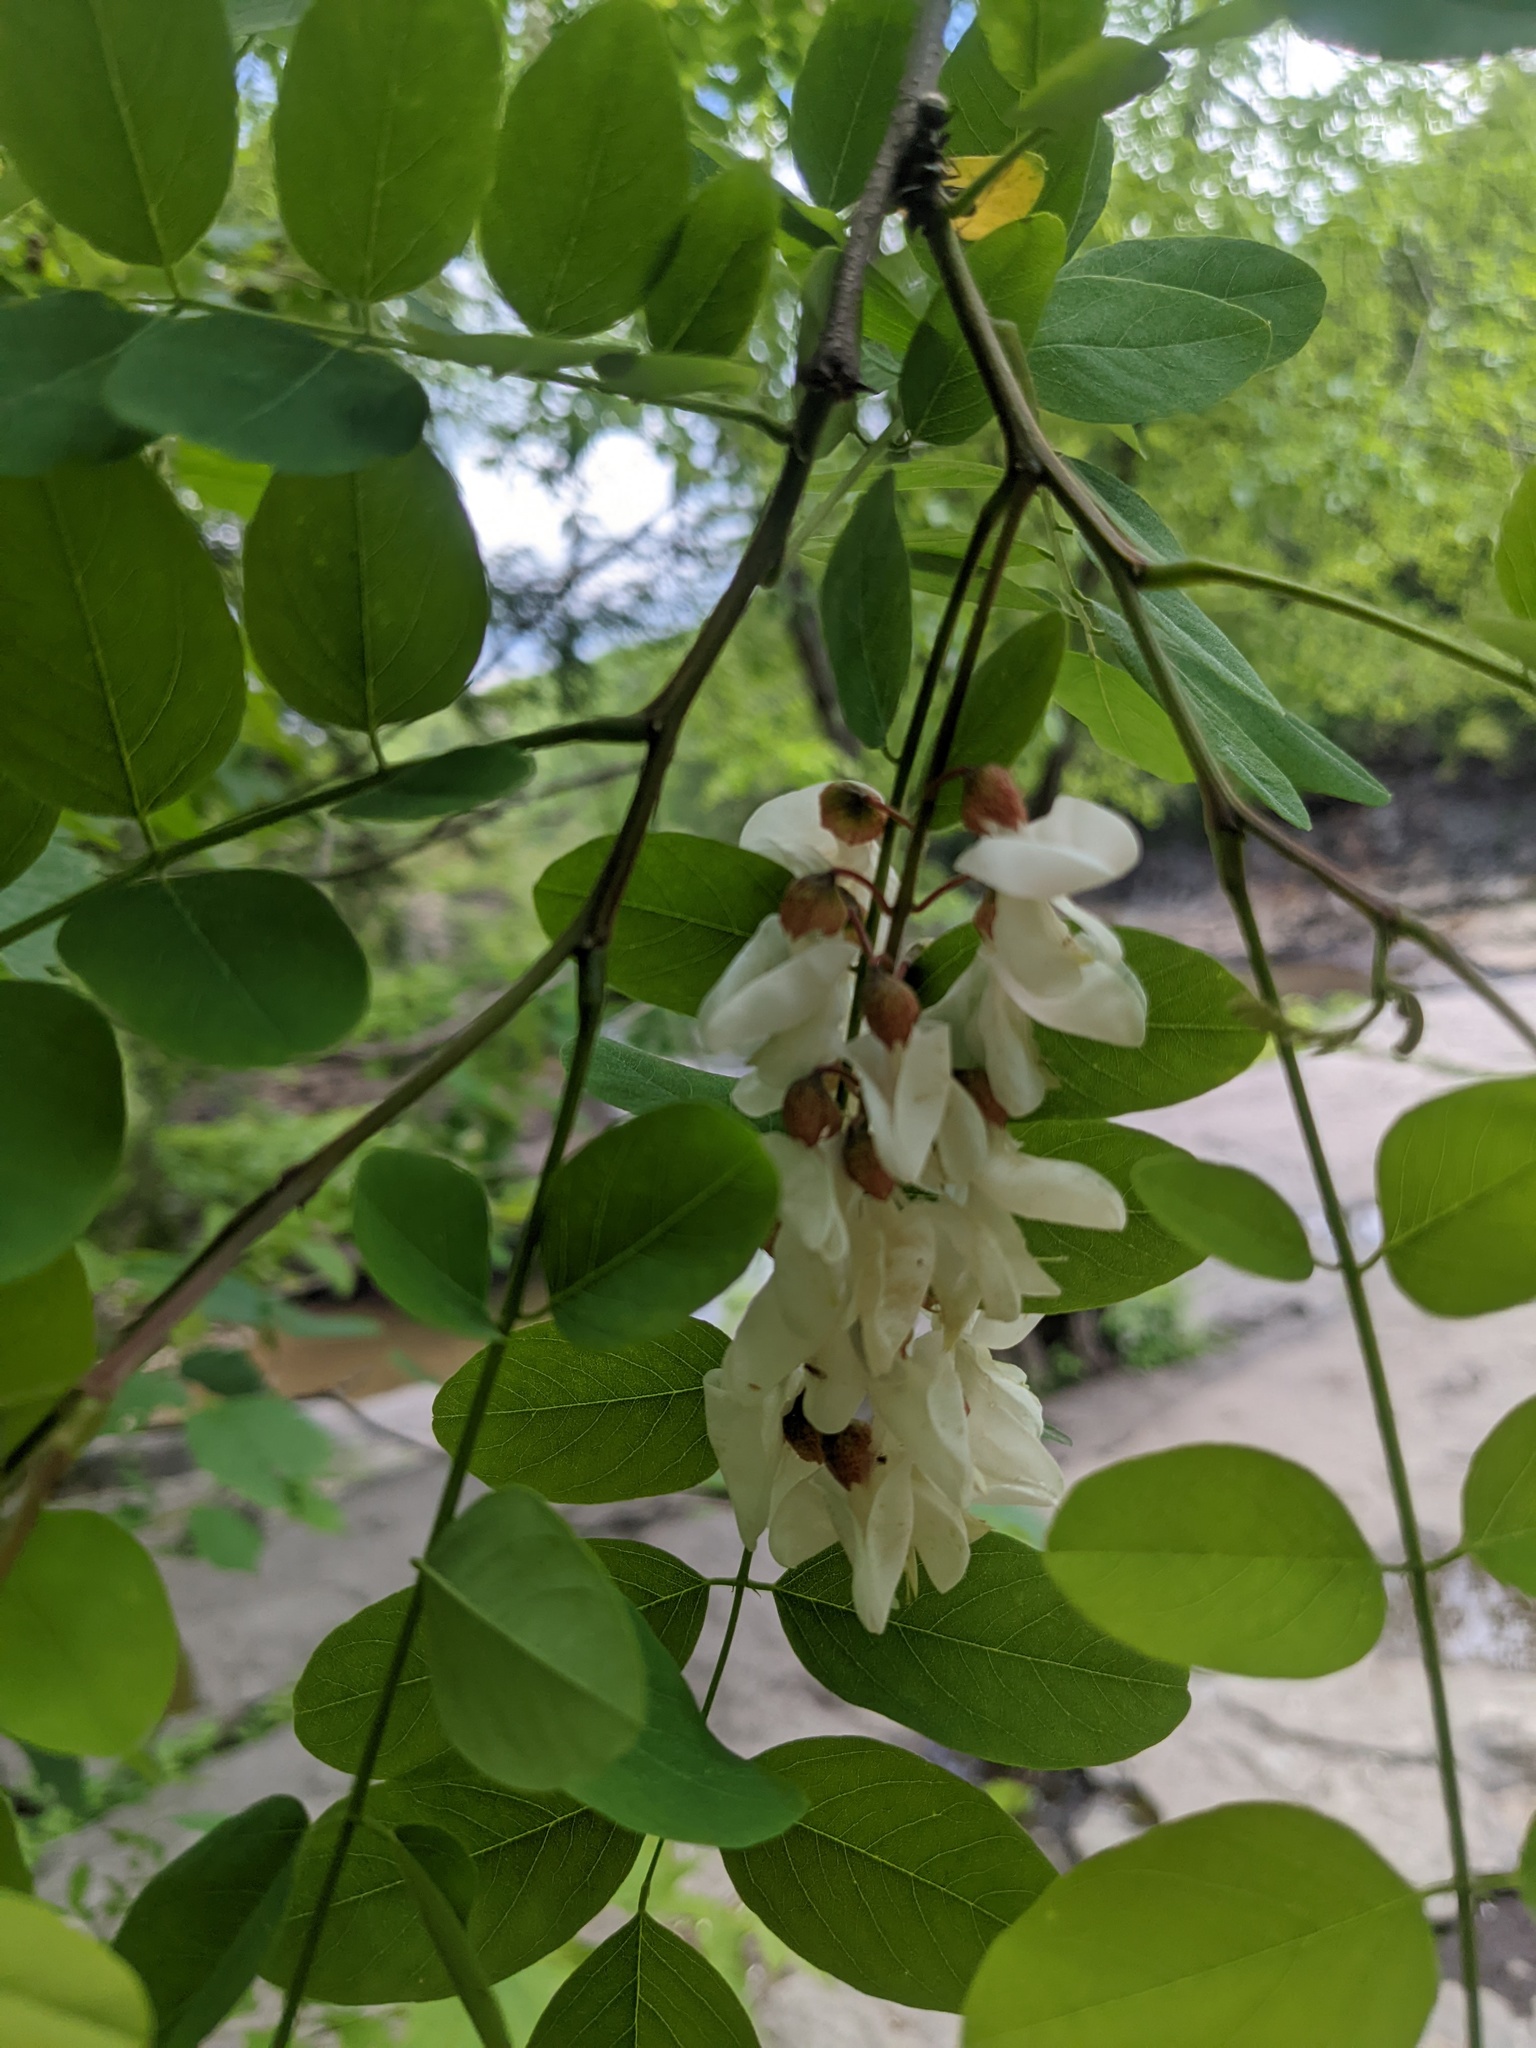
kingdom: Plantae
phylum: Tracheophyta
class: Magnoliopsida
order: Fabales
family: Fabaceae
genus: Robinia
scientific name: Robinia pseudoacacia
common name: Black locust
